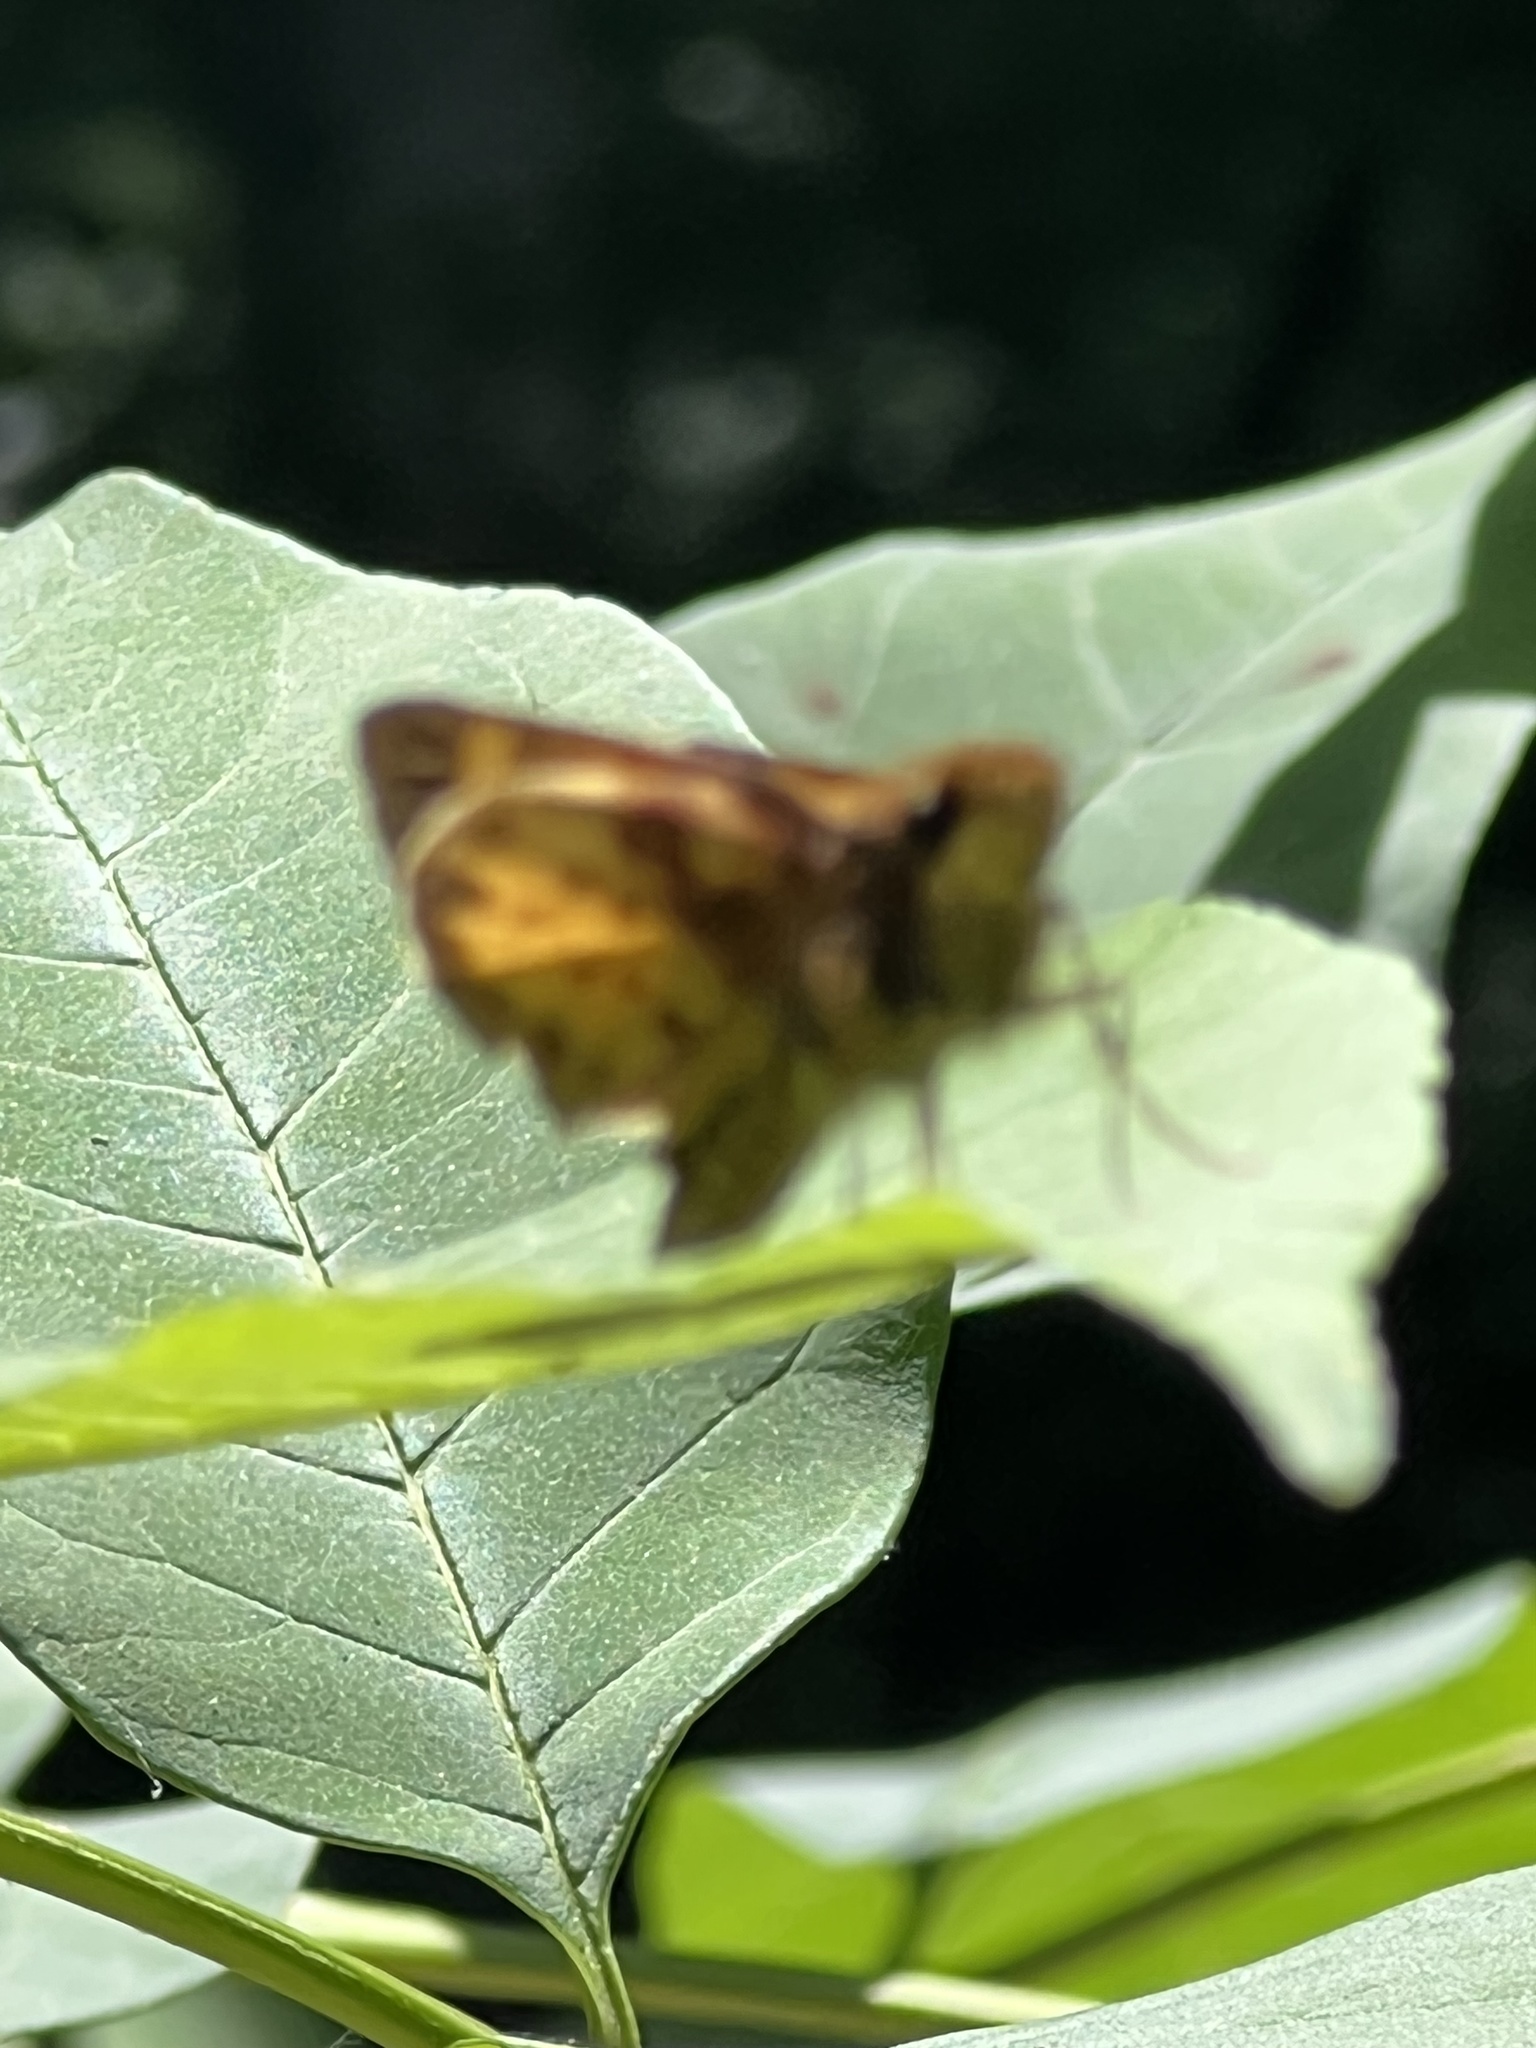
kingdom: Animalia
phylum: Arthropoda
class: Insecta
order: Lepidoptera
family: Hesperiidae
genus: Lon
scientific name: Lon zabulon
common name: Zabulon skipper
